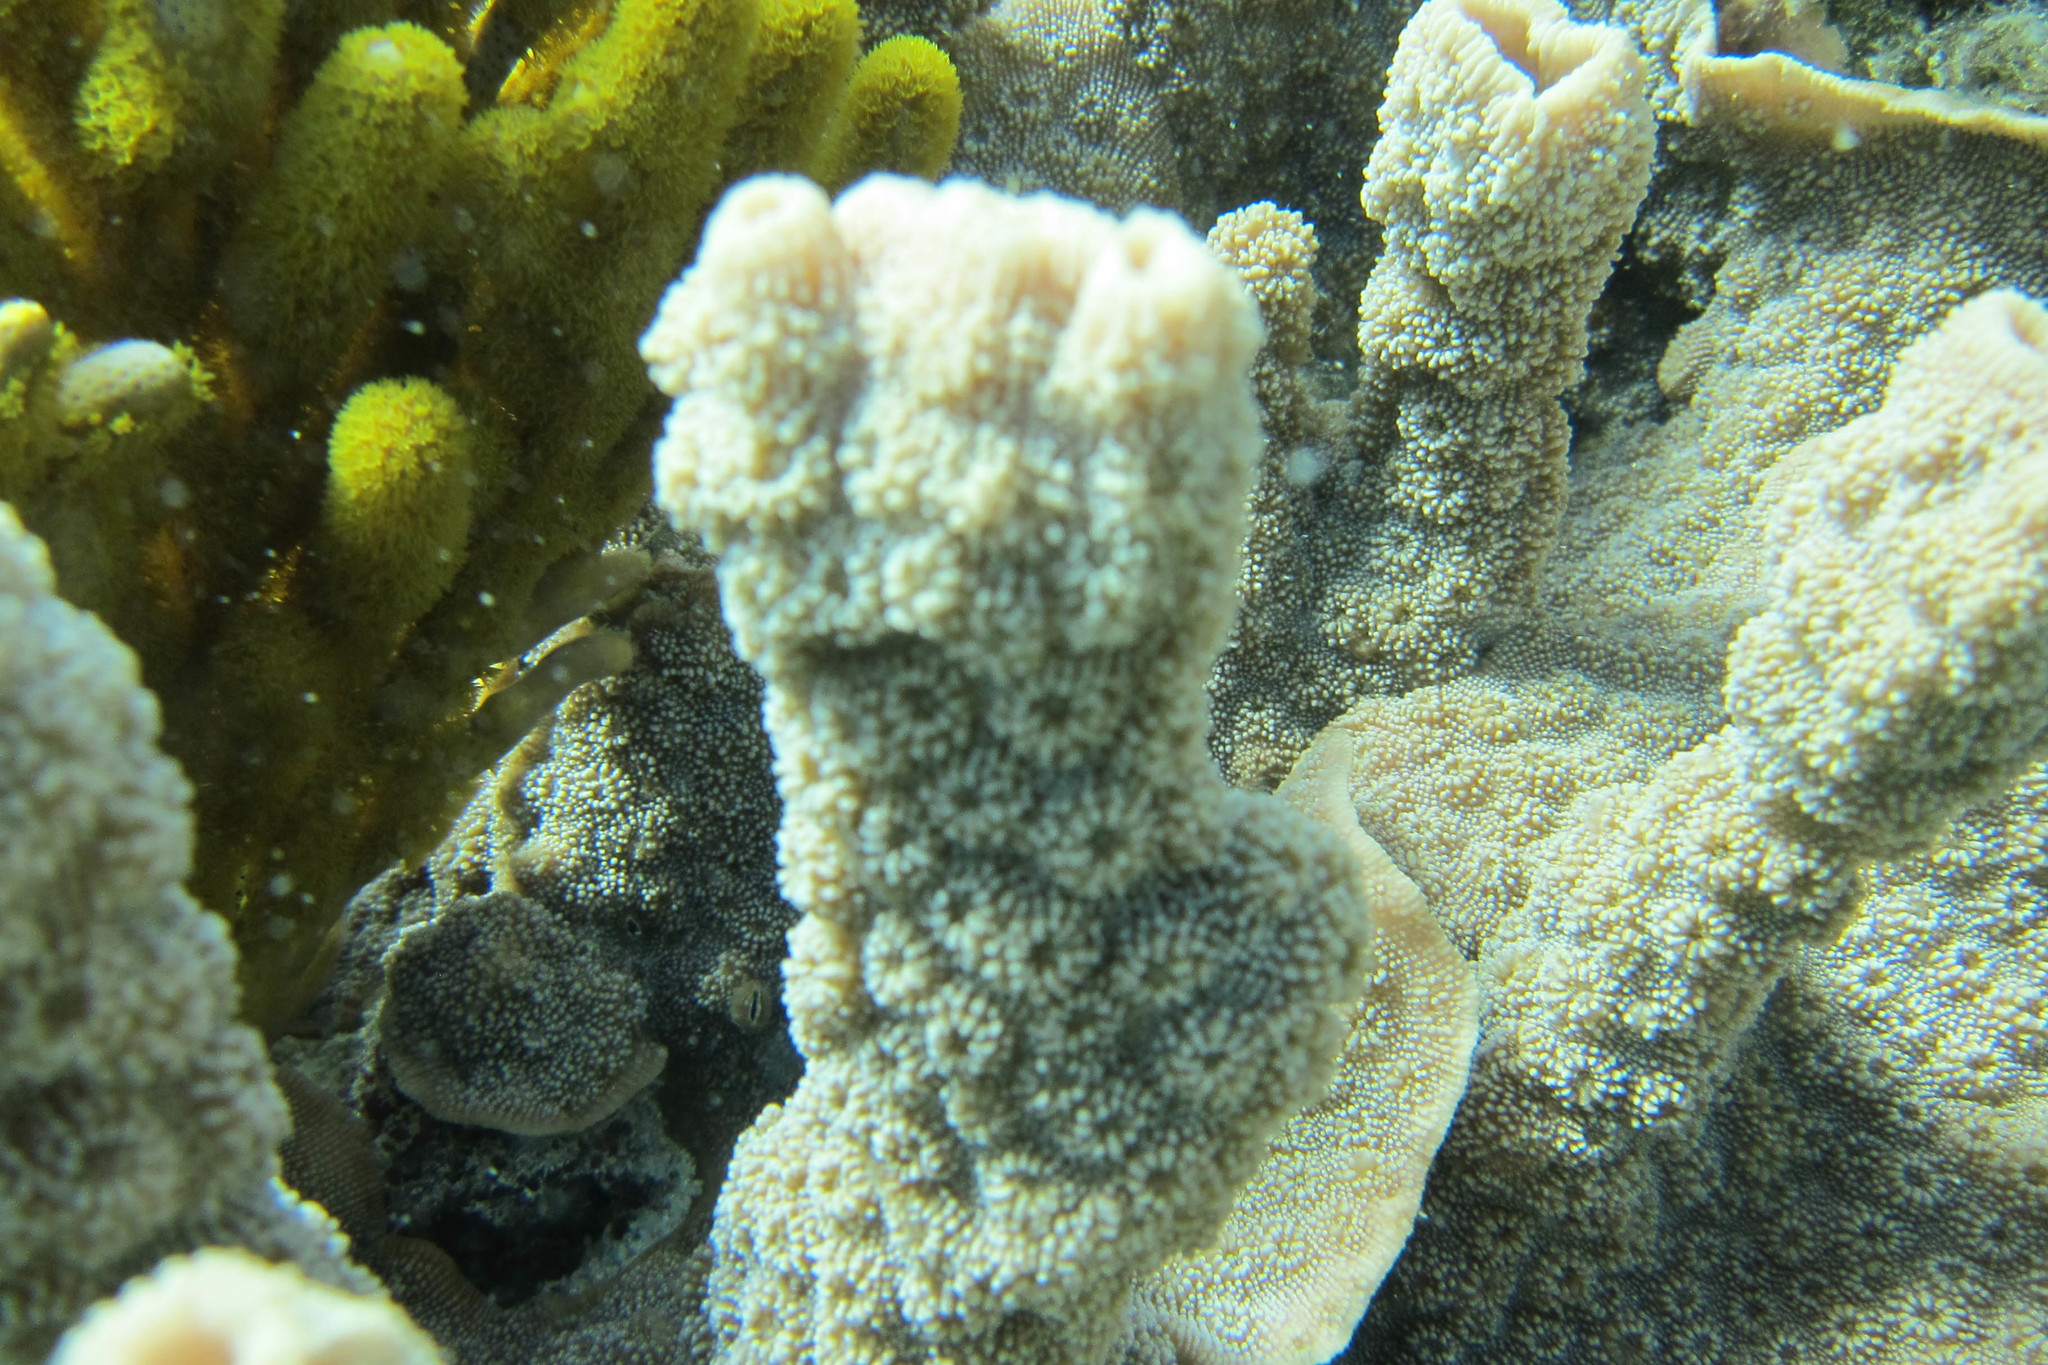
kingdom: Animalia
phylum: Cnidaria
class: Anthozoa
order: Scleractinia
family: Merulinidae
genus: Echinopora
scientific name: Echinopora lamellosa
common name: Hedgehog coral
